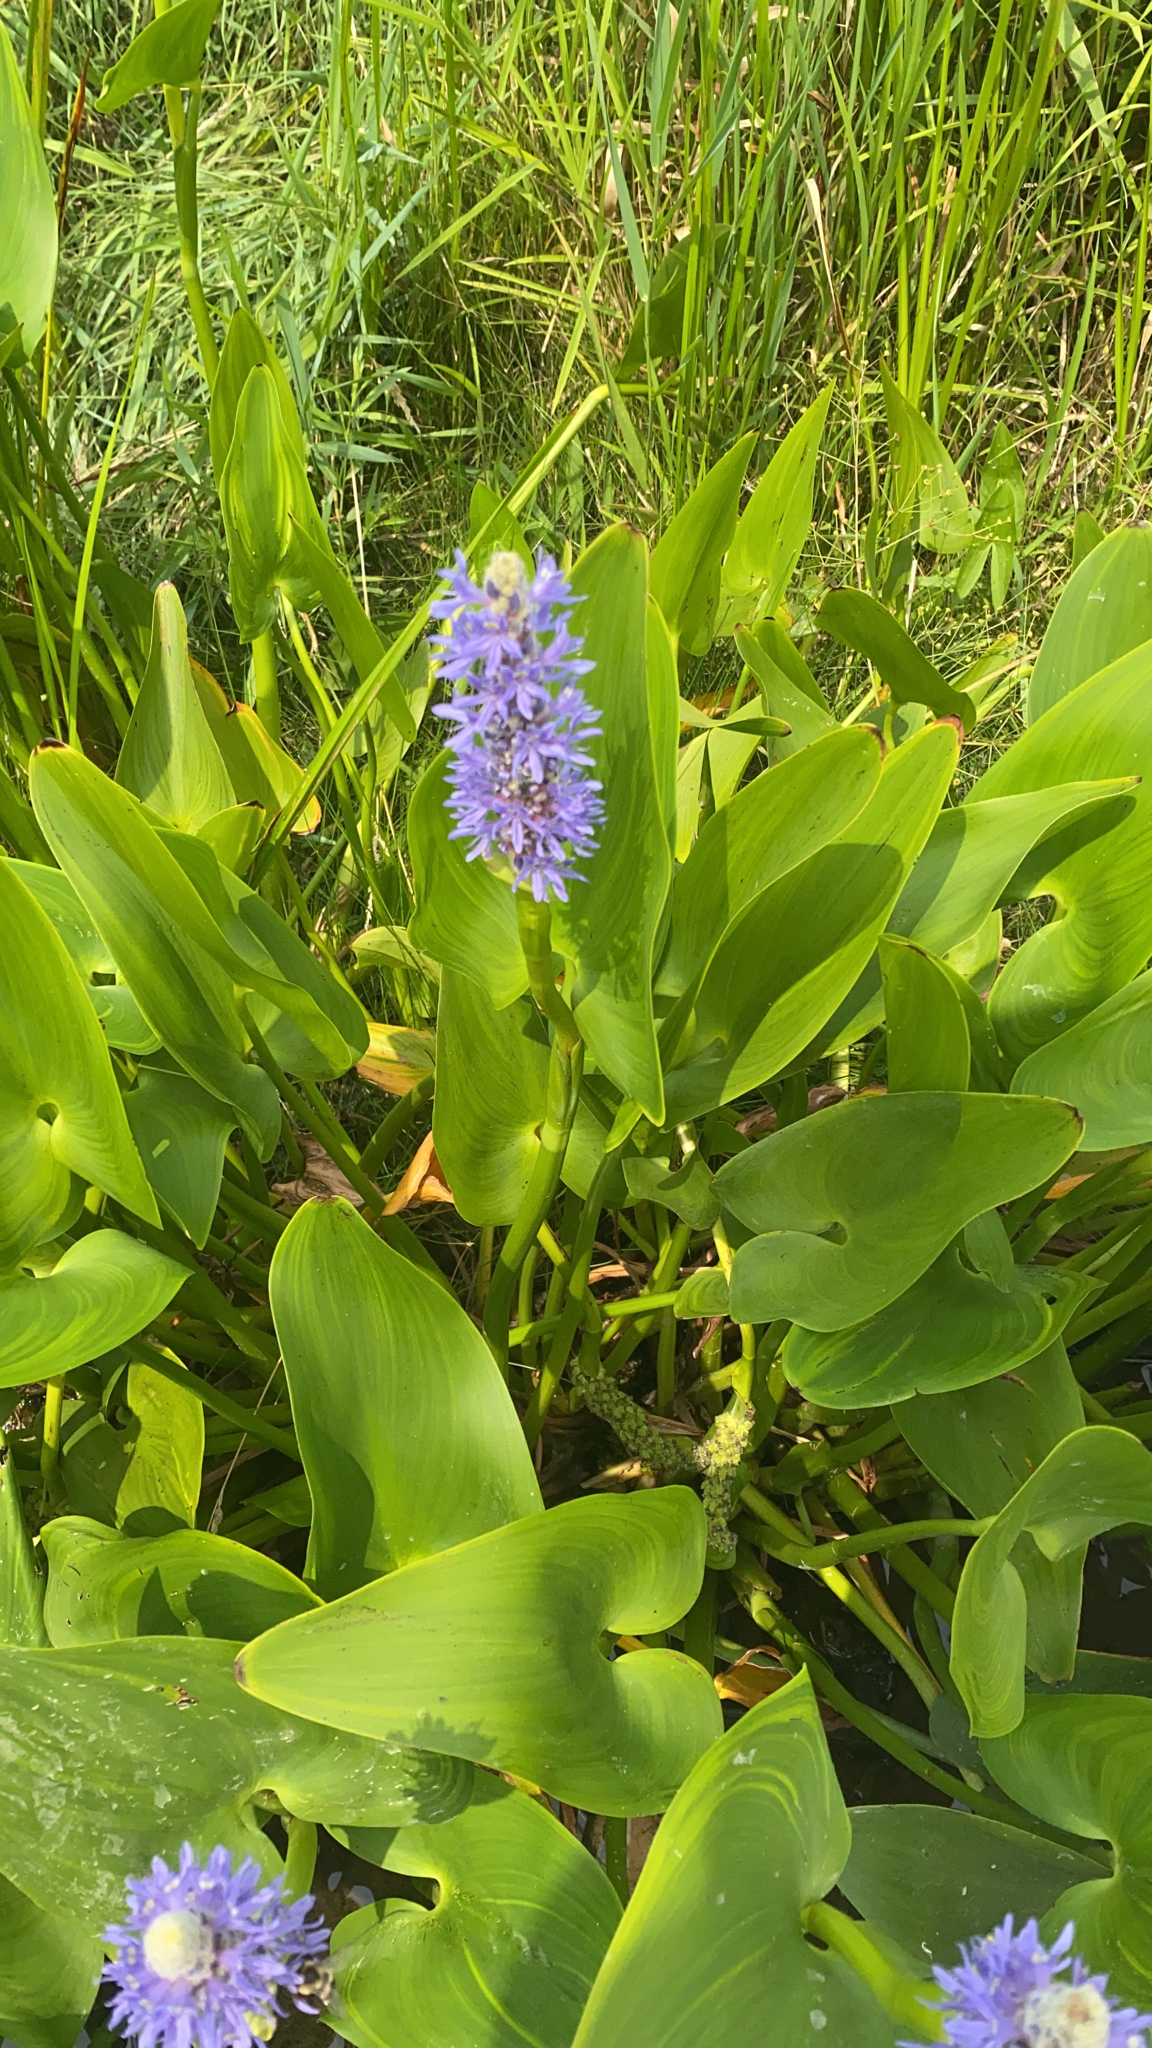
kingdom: Plantae
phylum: Tracheophyta
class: Liliopsida
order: Commelinales
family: Pontederiaceae
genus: Pontederia
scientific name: Pontederia cordata
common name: Pickerelweed
